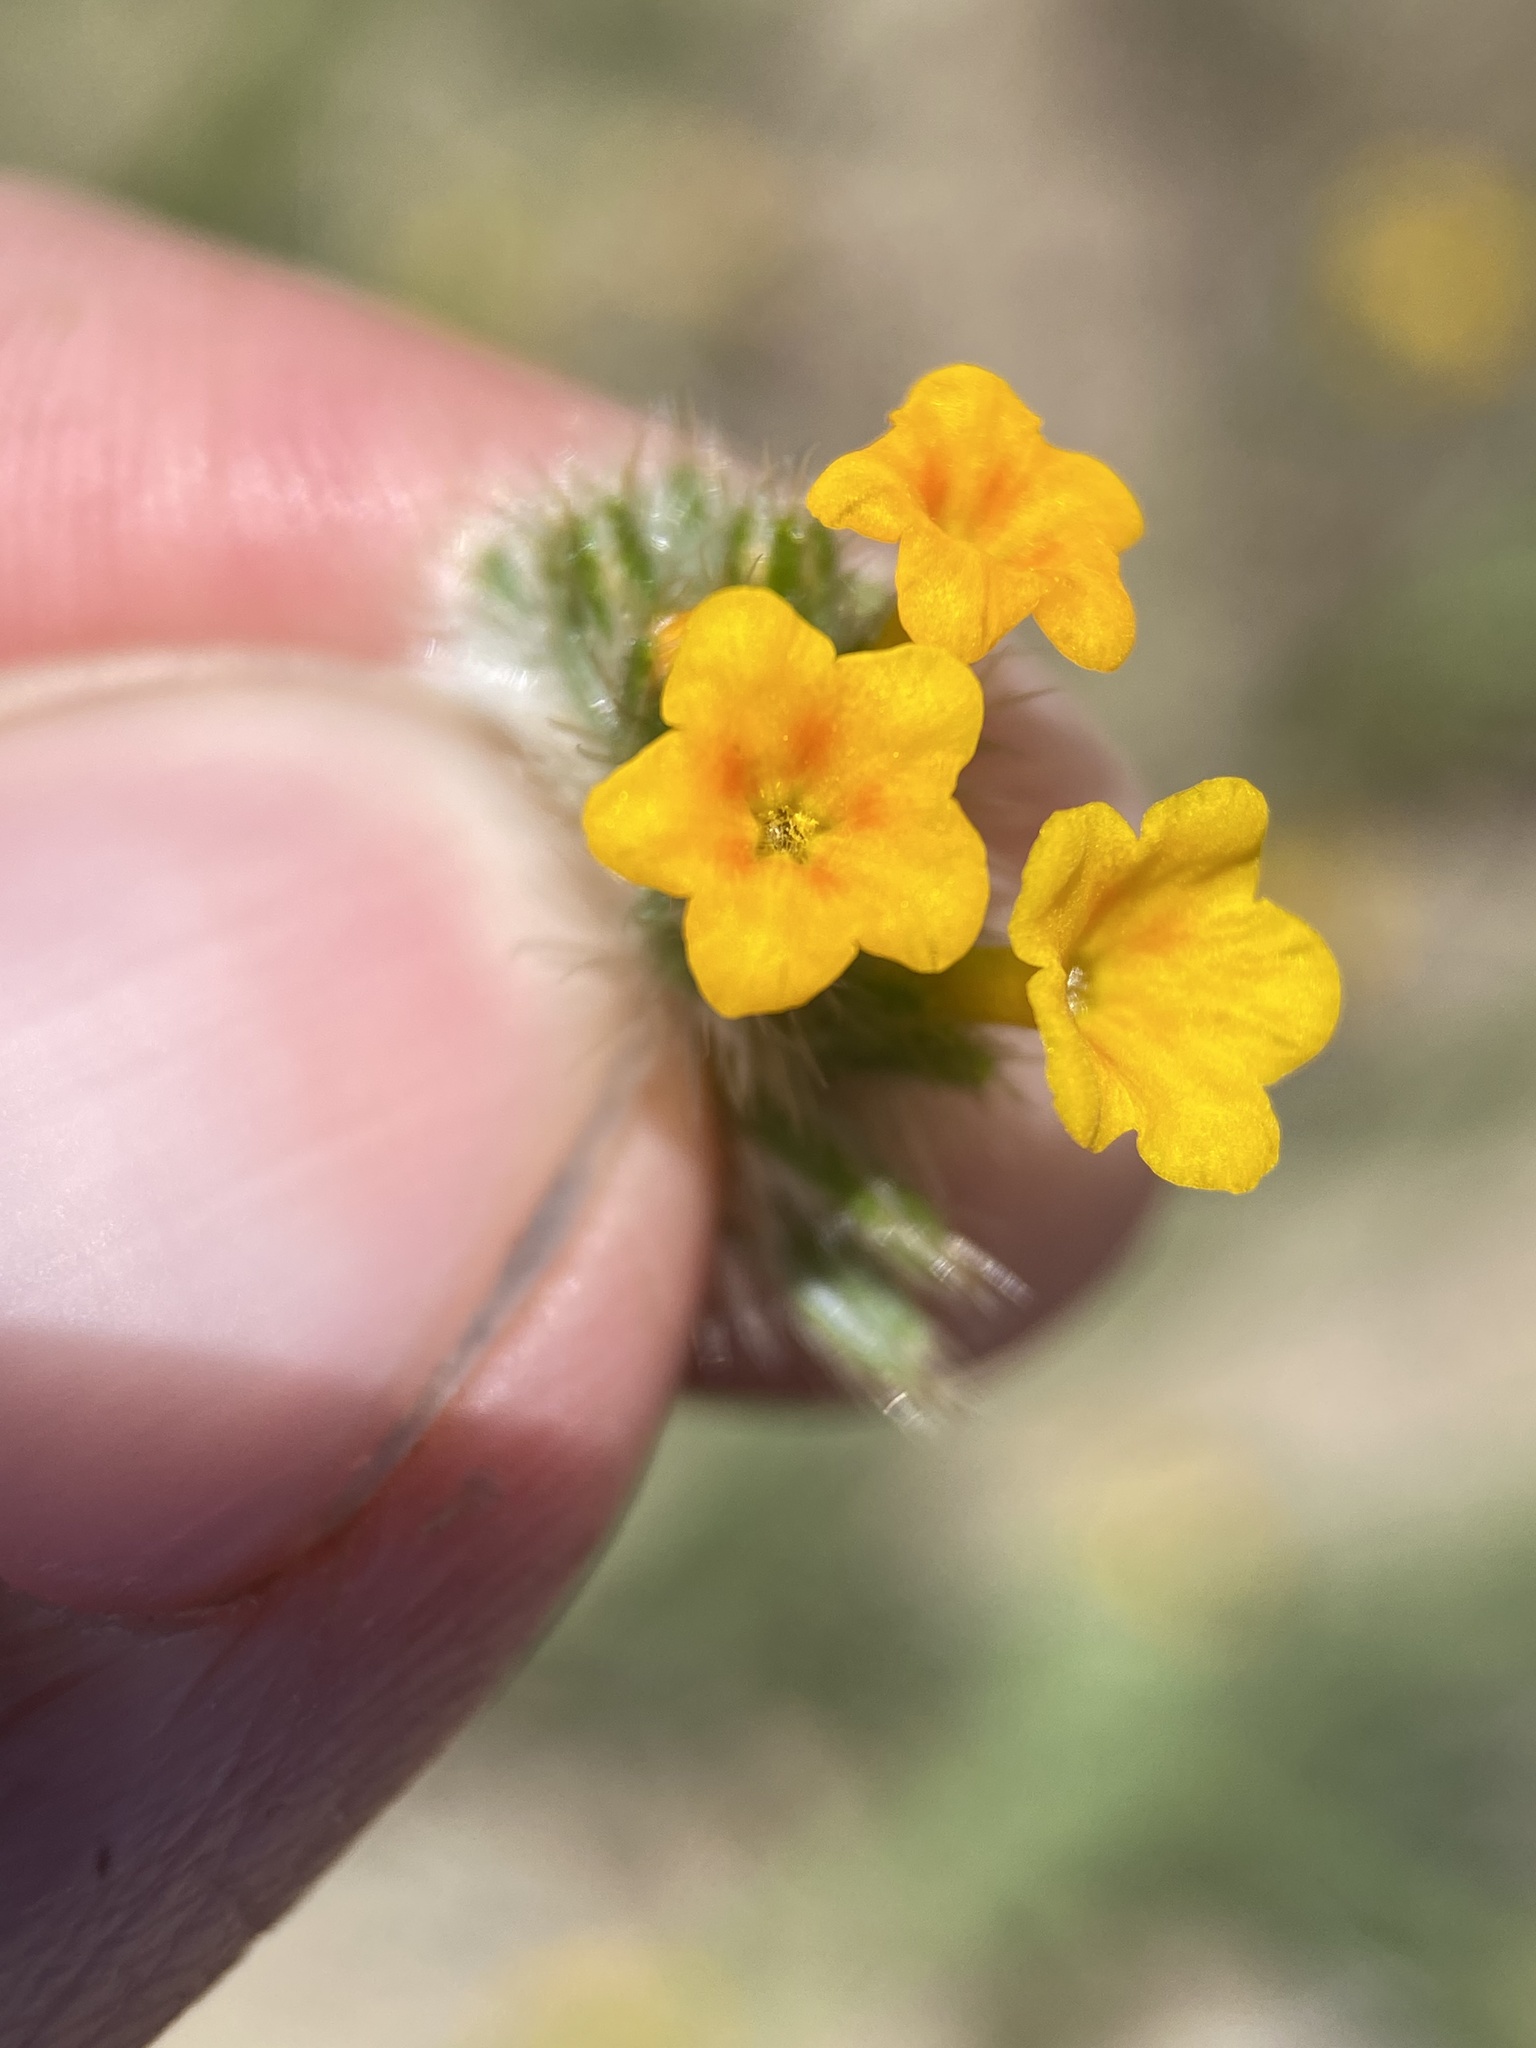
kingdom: Plantae
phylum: Tracheophyta
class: Magnoliopsida
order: Boraginales
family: Boraginaceae
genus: Amsinckia
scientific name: Amsinckia lycopsoides
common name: Tarweed fiddleneck
